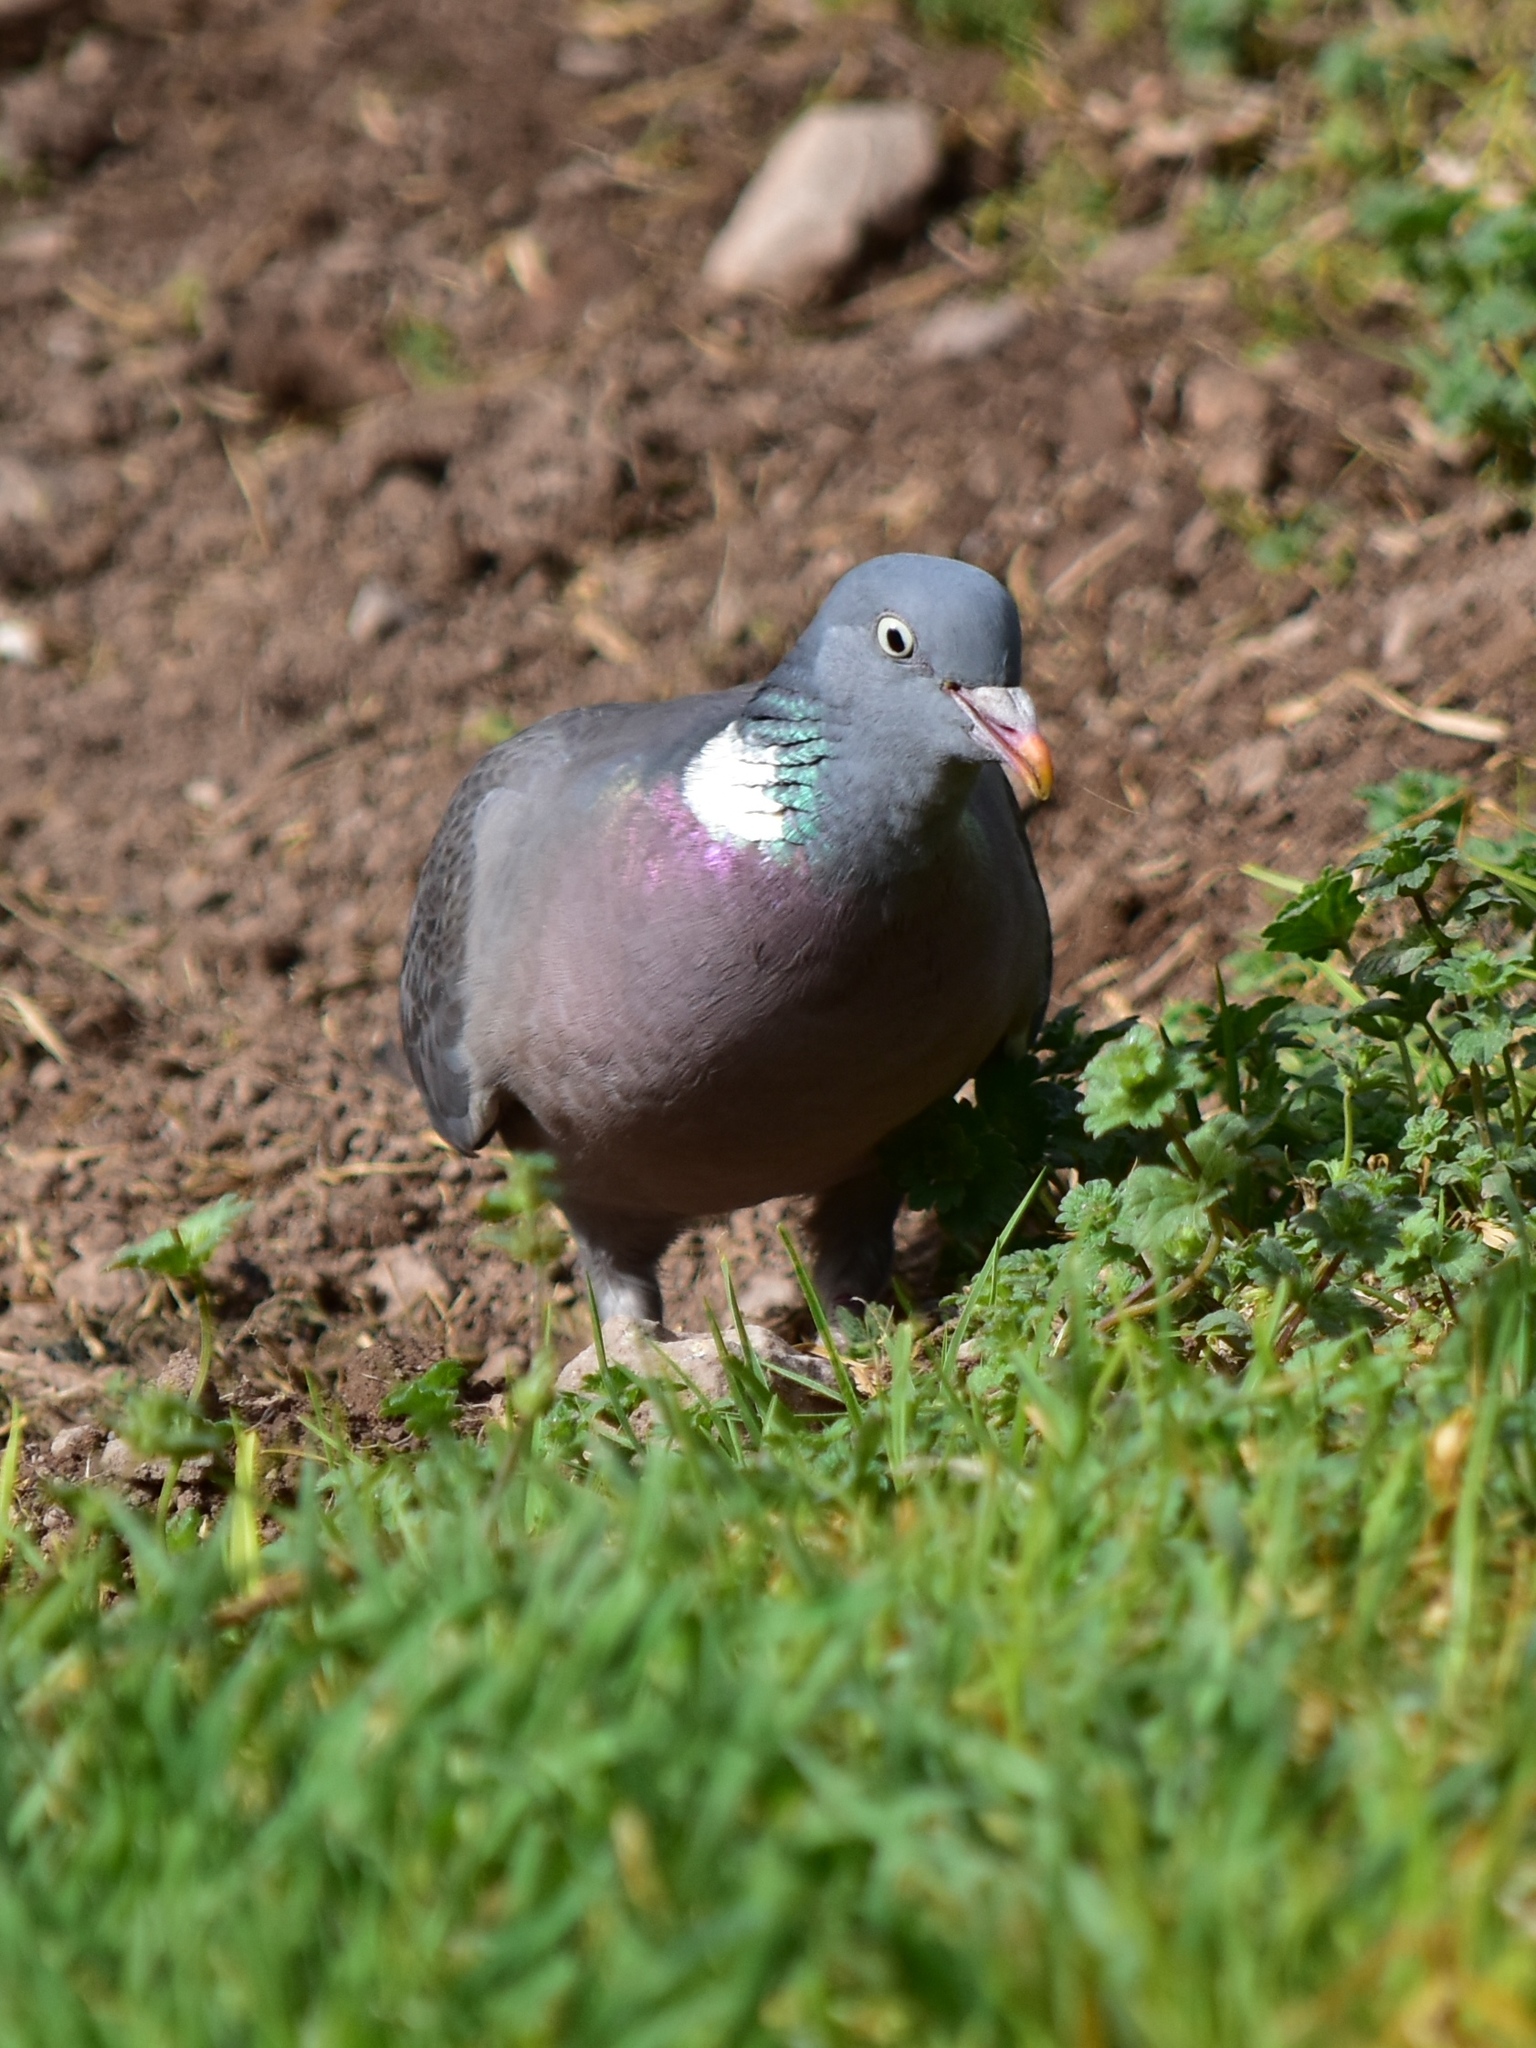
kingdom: Animalia
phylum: Chordata
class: Aves
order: Columbiformes
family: Columbidae
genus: Columba
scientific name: Columba palumbus
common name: Common wood pigeon
